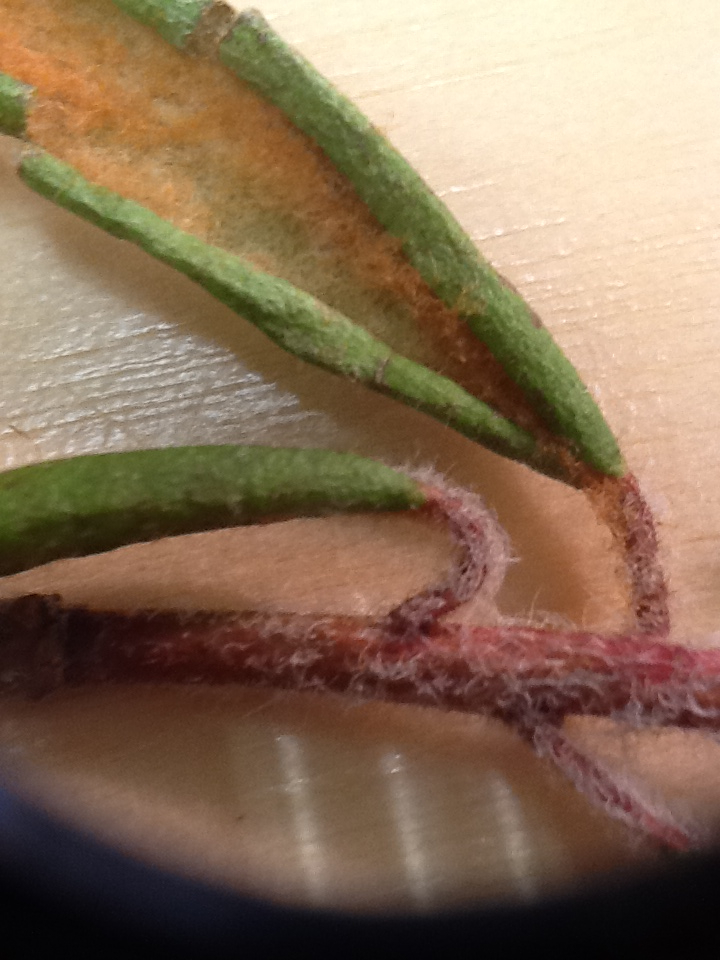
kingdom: Plantae
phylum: Tracheophyta
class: Magnoliopsida
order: Ericales
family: Ericaceae
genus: Rhododendron
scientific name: Rhododendron groenlandicum
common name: Bog labrador tea
